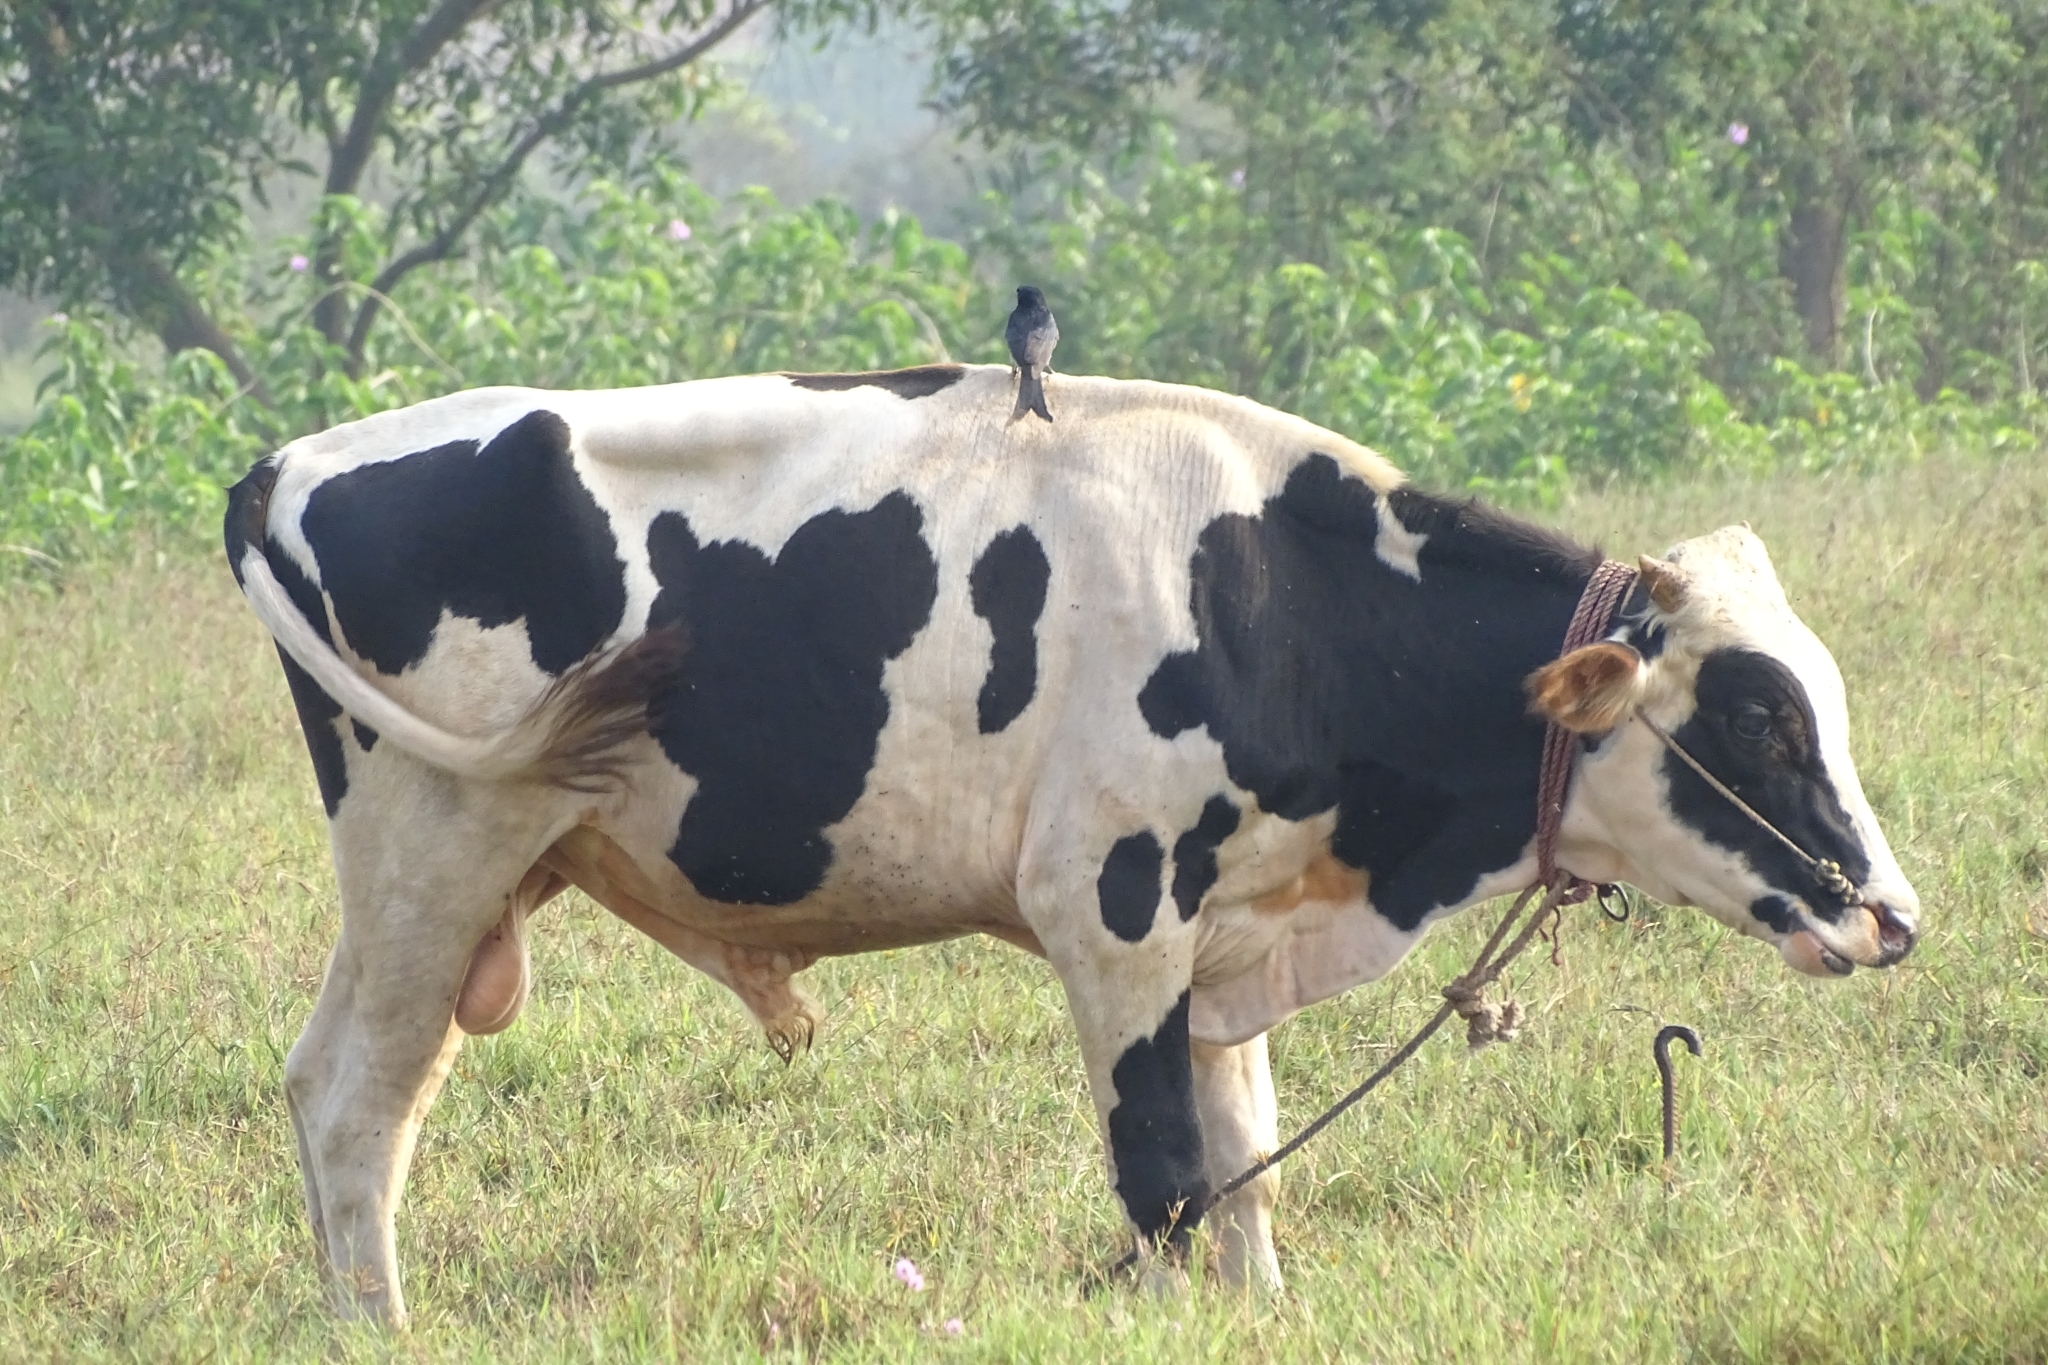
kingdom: Animalia
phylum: Chordata
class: Aves
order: Passeriformes
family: Dicruridae
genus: Dicrurus
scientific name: Dicrurus macrocercus
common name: Black drongo
